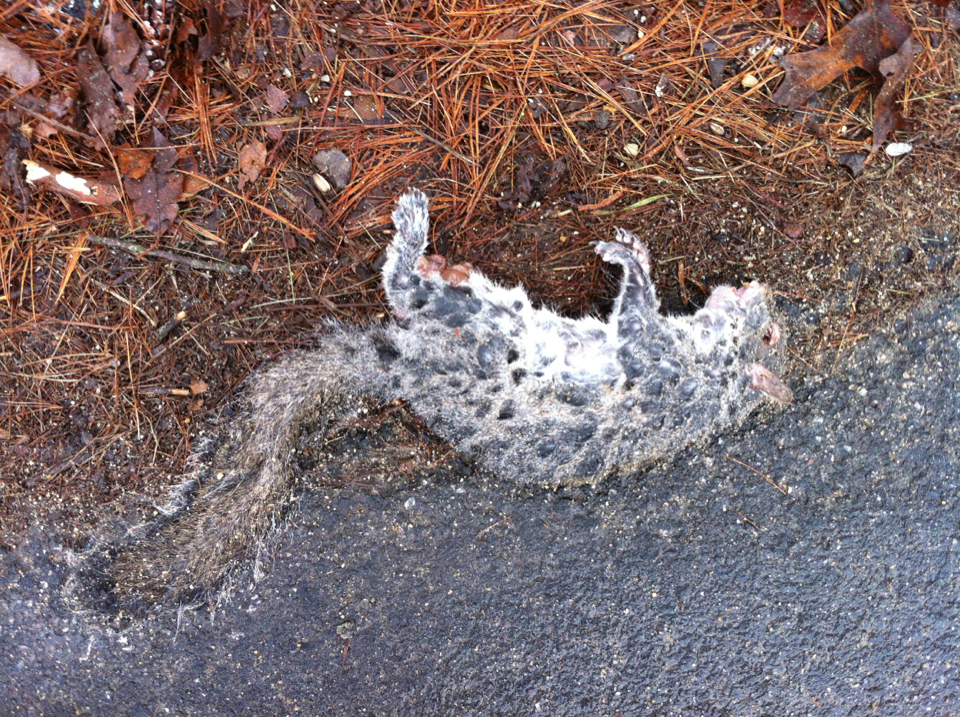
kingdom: Animalia
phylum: Chordata
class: Mammalia
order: Rodentia
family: Sciuridae
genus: Sciurus
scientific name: Sciurus carolinensis
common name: Eastern gray squirrel
